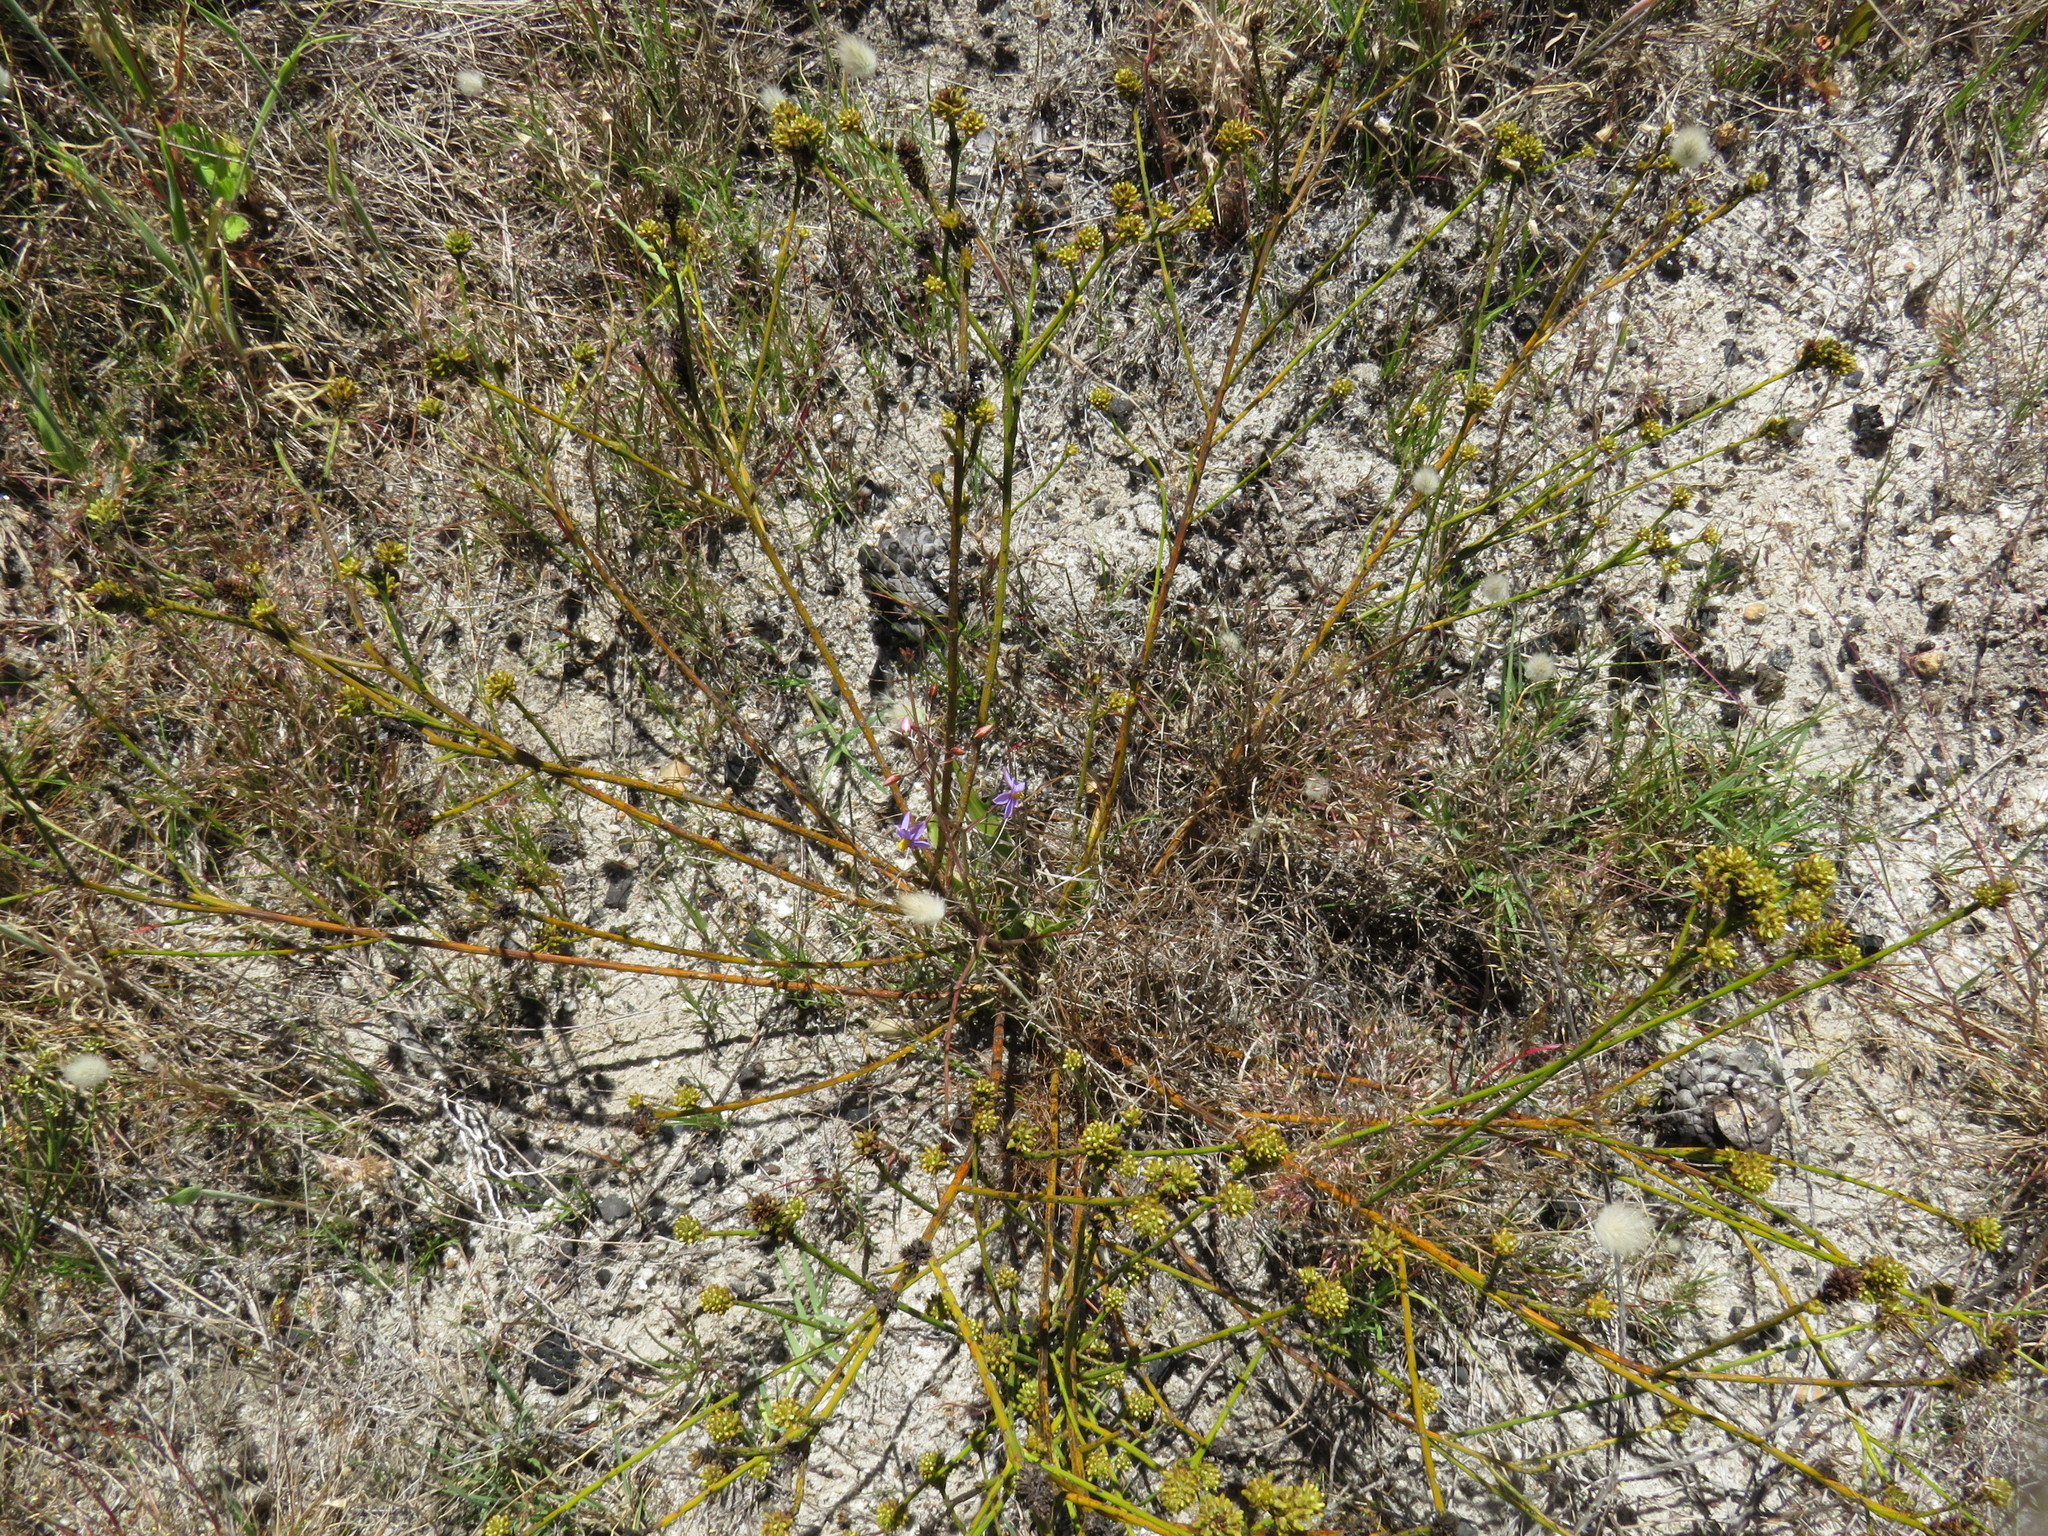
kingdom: Plantae
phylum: Tracheophyta
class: Magnoliopsida
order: Santalales
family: Thesiaceae
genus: Thesium
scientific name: Thesium aggregatum
